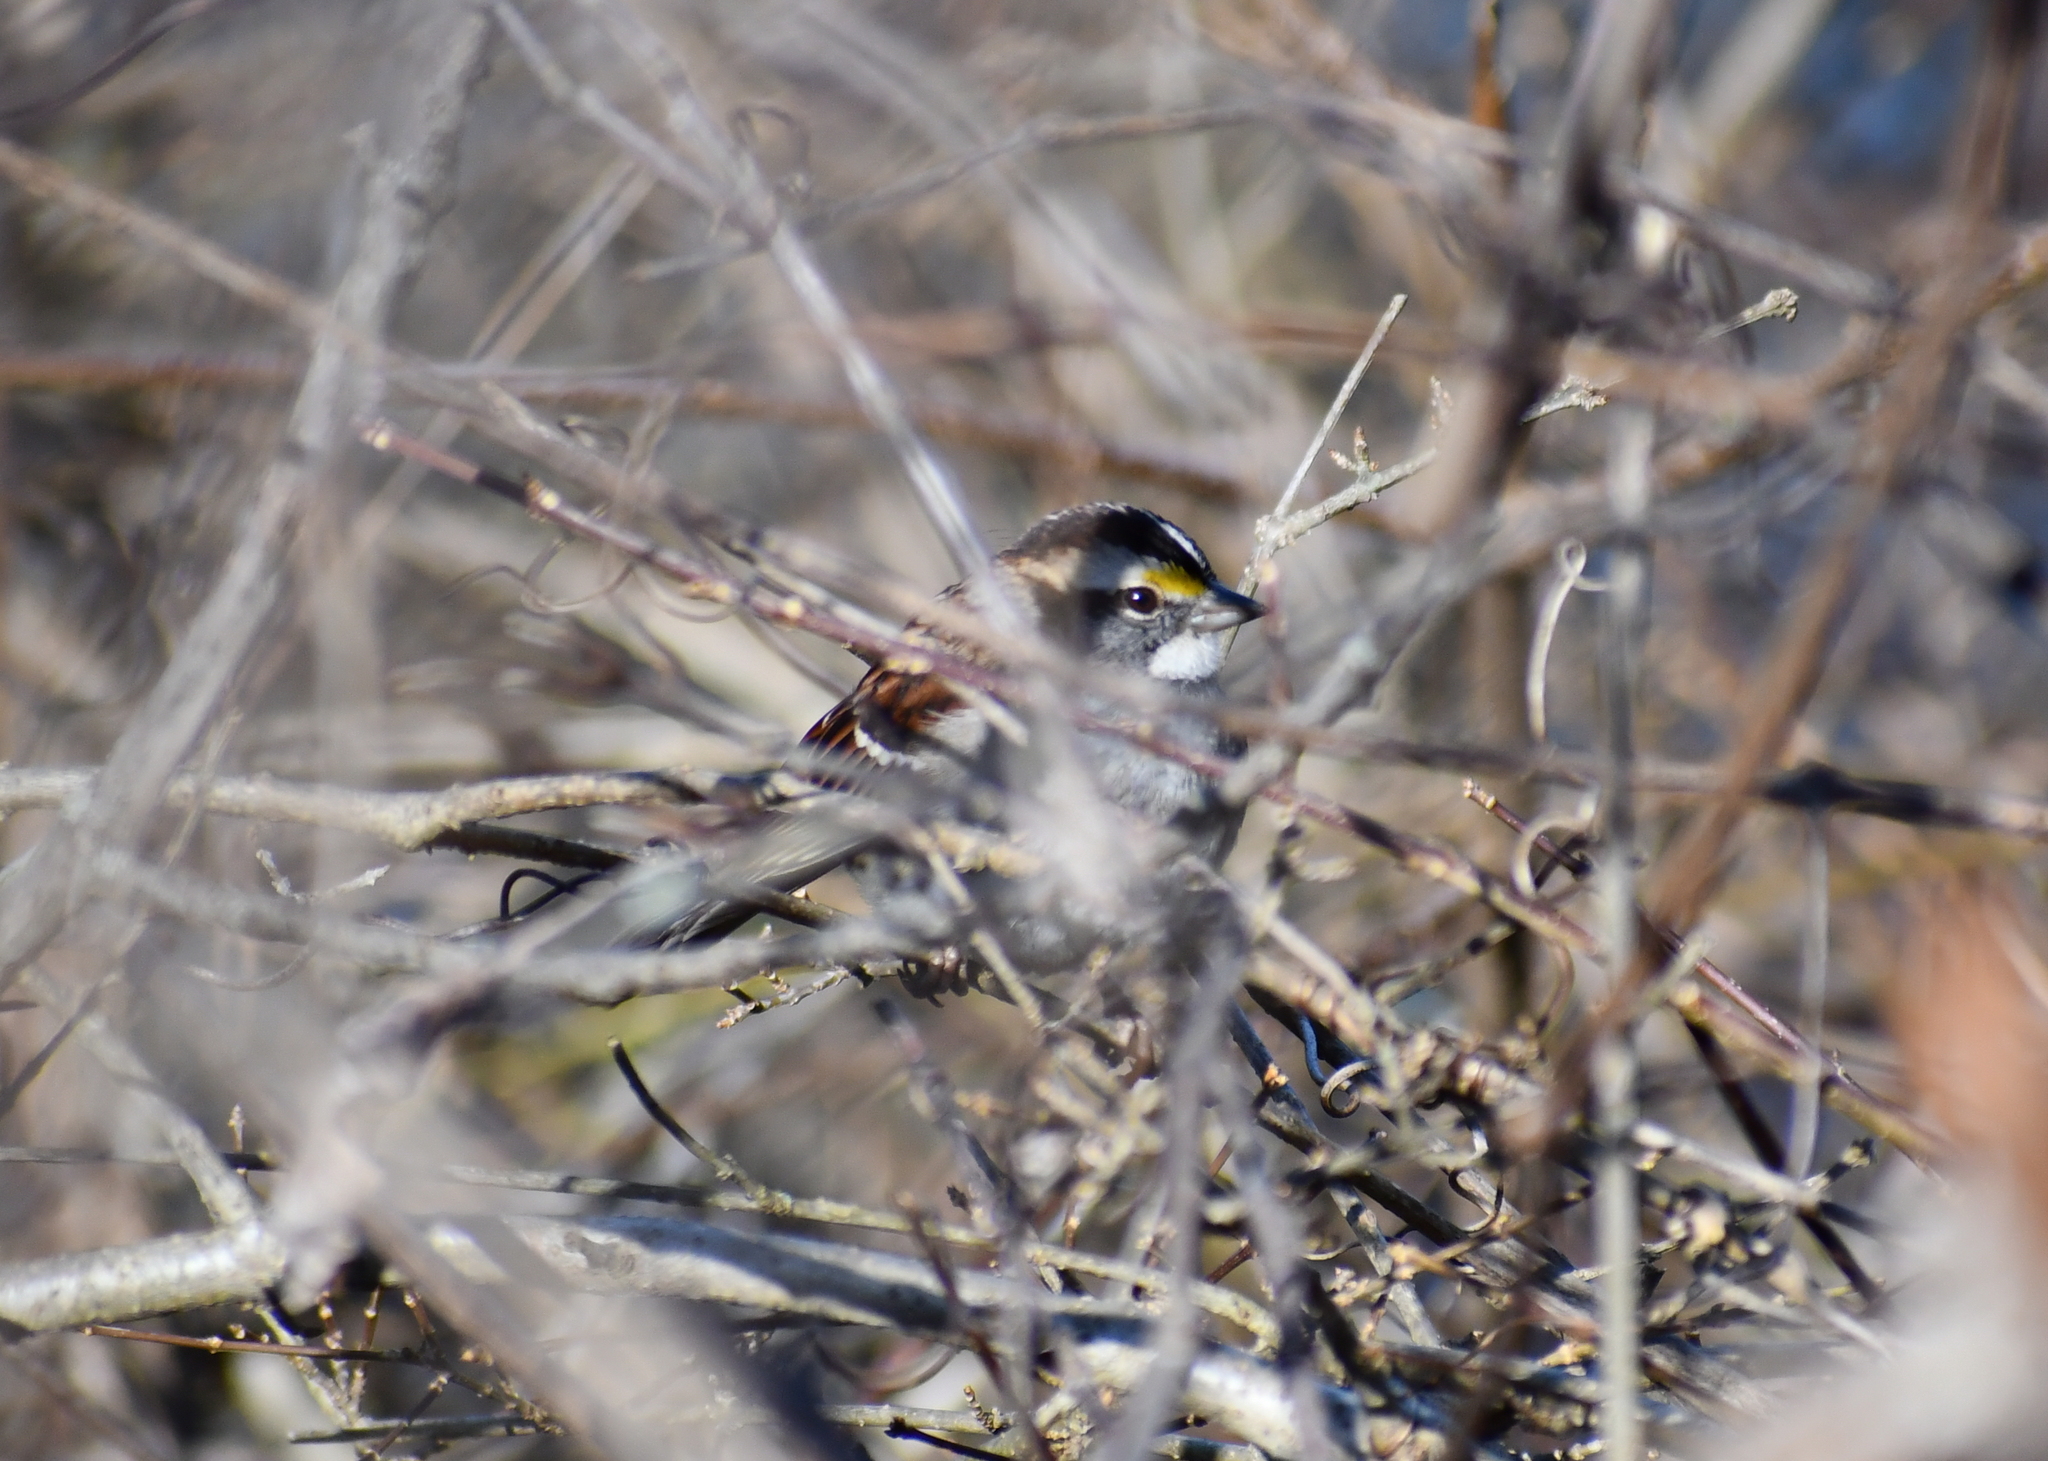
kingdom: Animalia
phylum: Chordata
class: Aves
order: Passeriformes
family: Passerellidae
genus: Zonotrichia
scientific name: Zonotrichia albicollis
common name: White-throated sparrow
